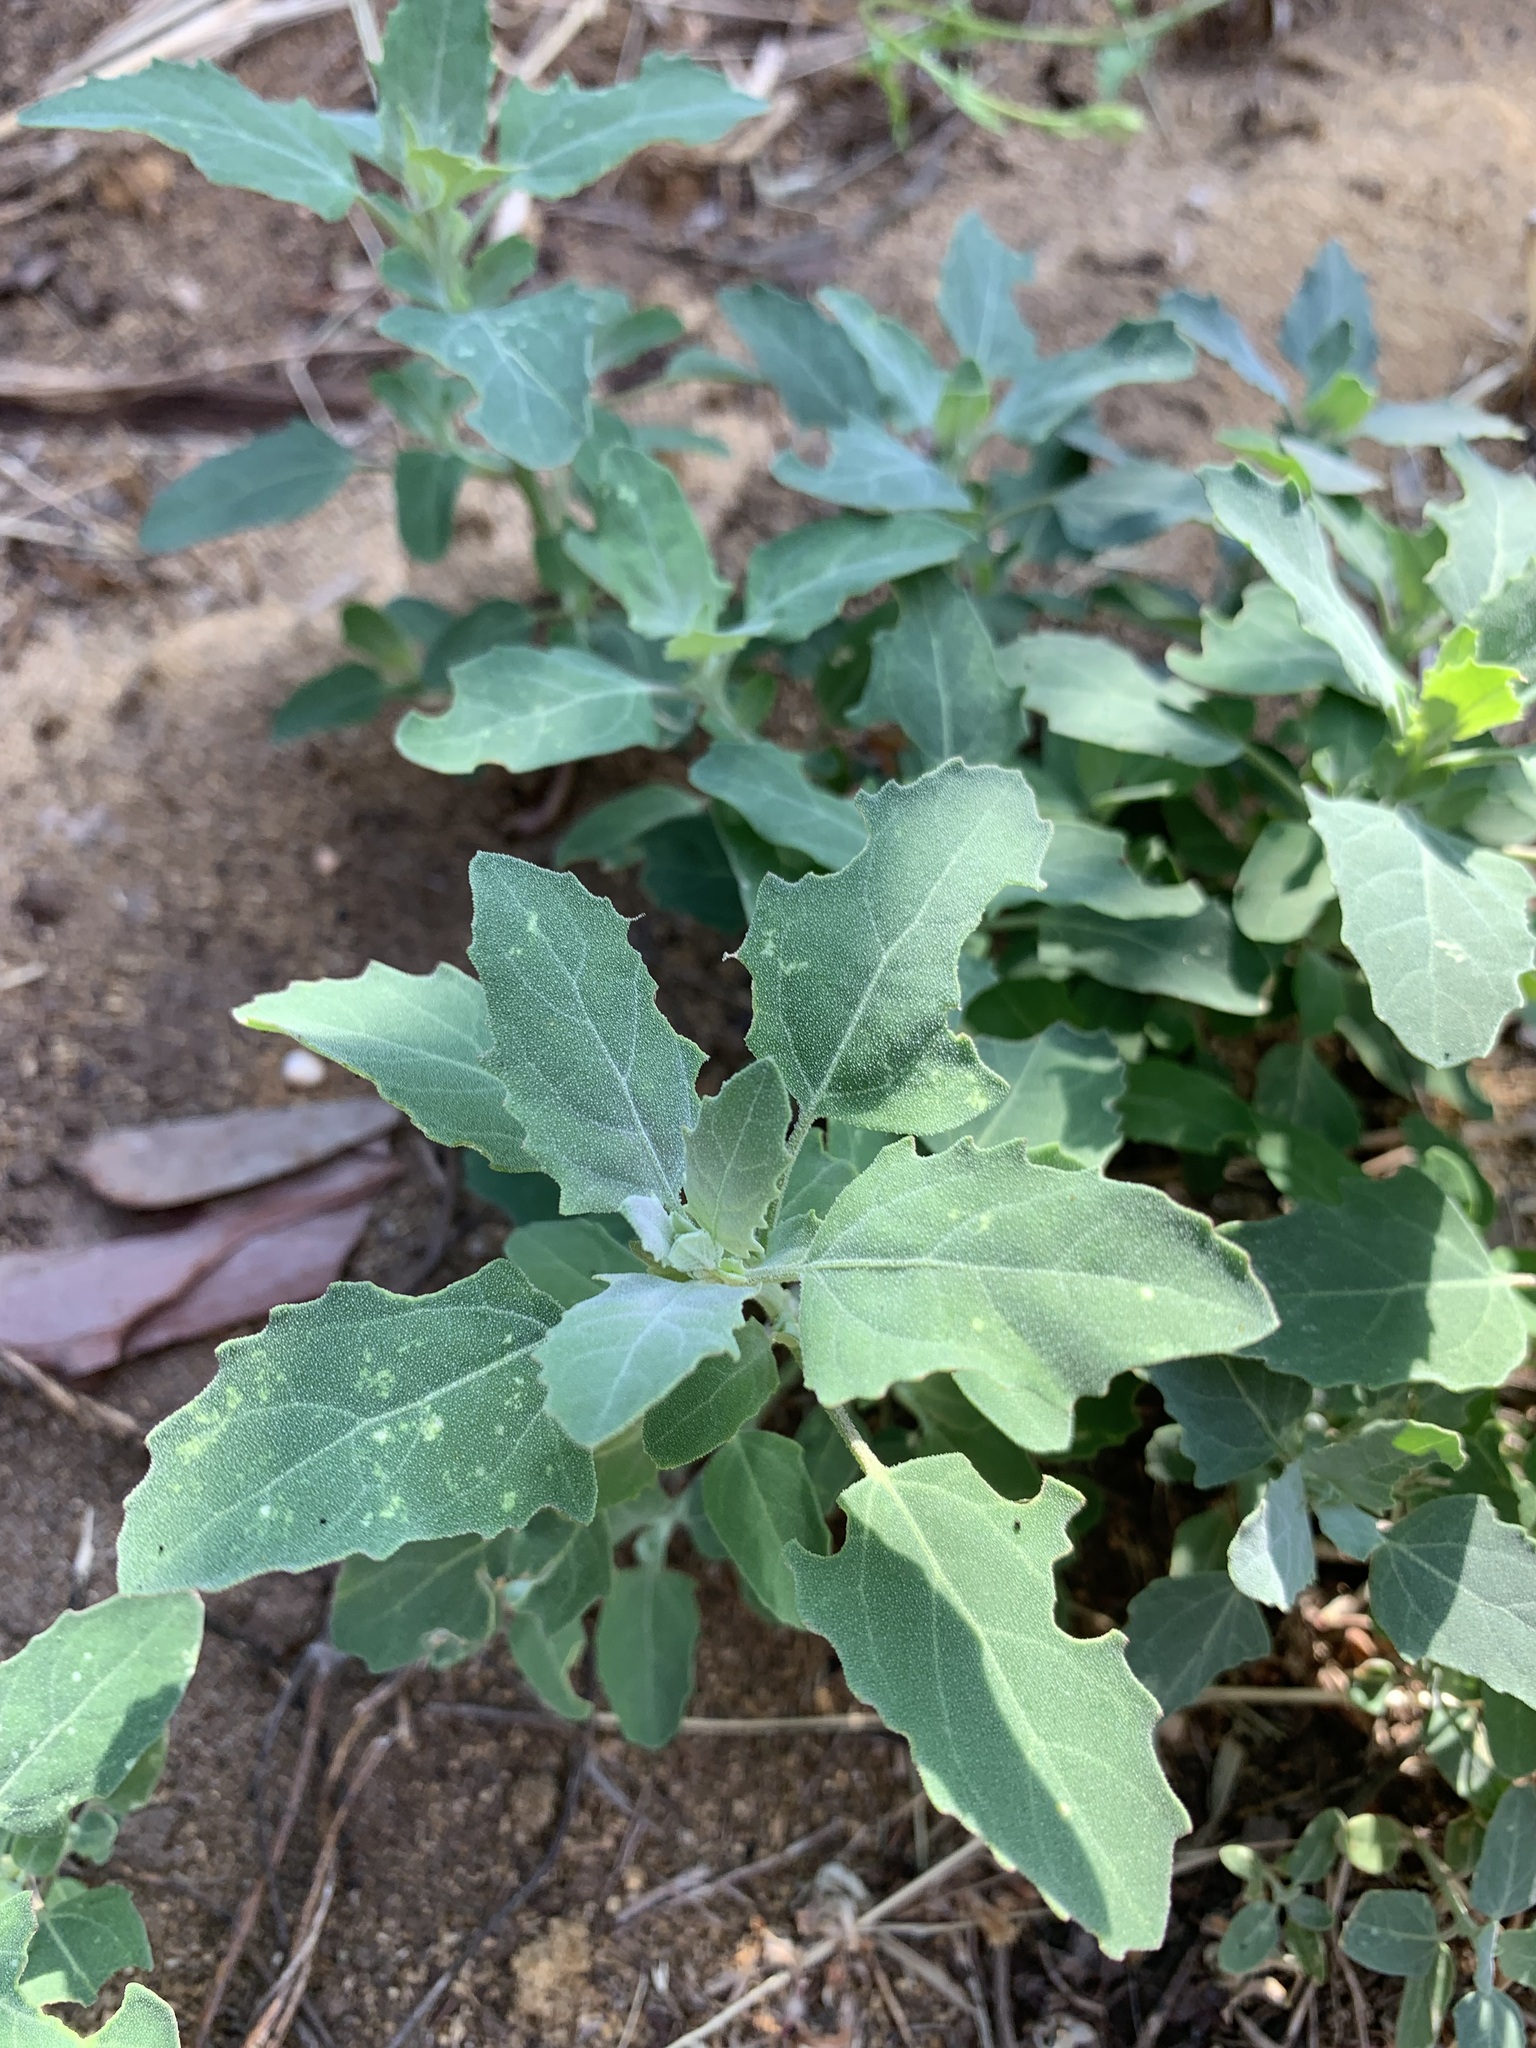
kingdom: Plantae
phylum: Tracheophyta
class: Magnoliopsida
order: Caryophyllales
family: Amaranthaceae
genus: Chenopodium
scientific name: Chenopodium album
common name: Fat-hen
